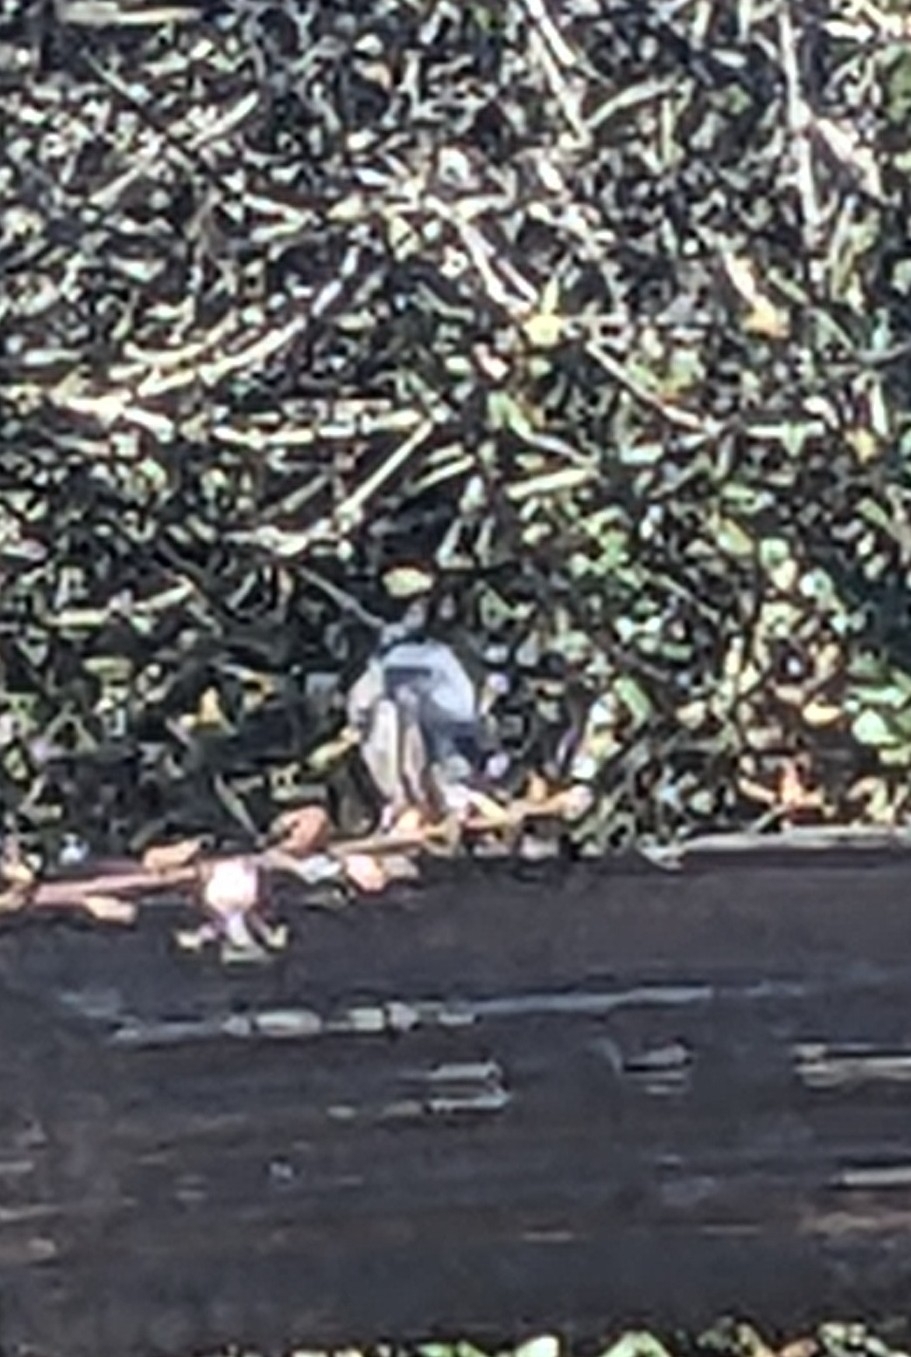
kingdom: Animalia
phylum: Chordata
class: Aves
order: Passeriformes
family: Polioptilidae
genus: Polioptila
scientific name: Polioptila caerulea
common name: Blue-gray gnatcatcher
